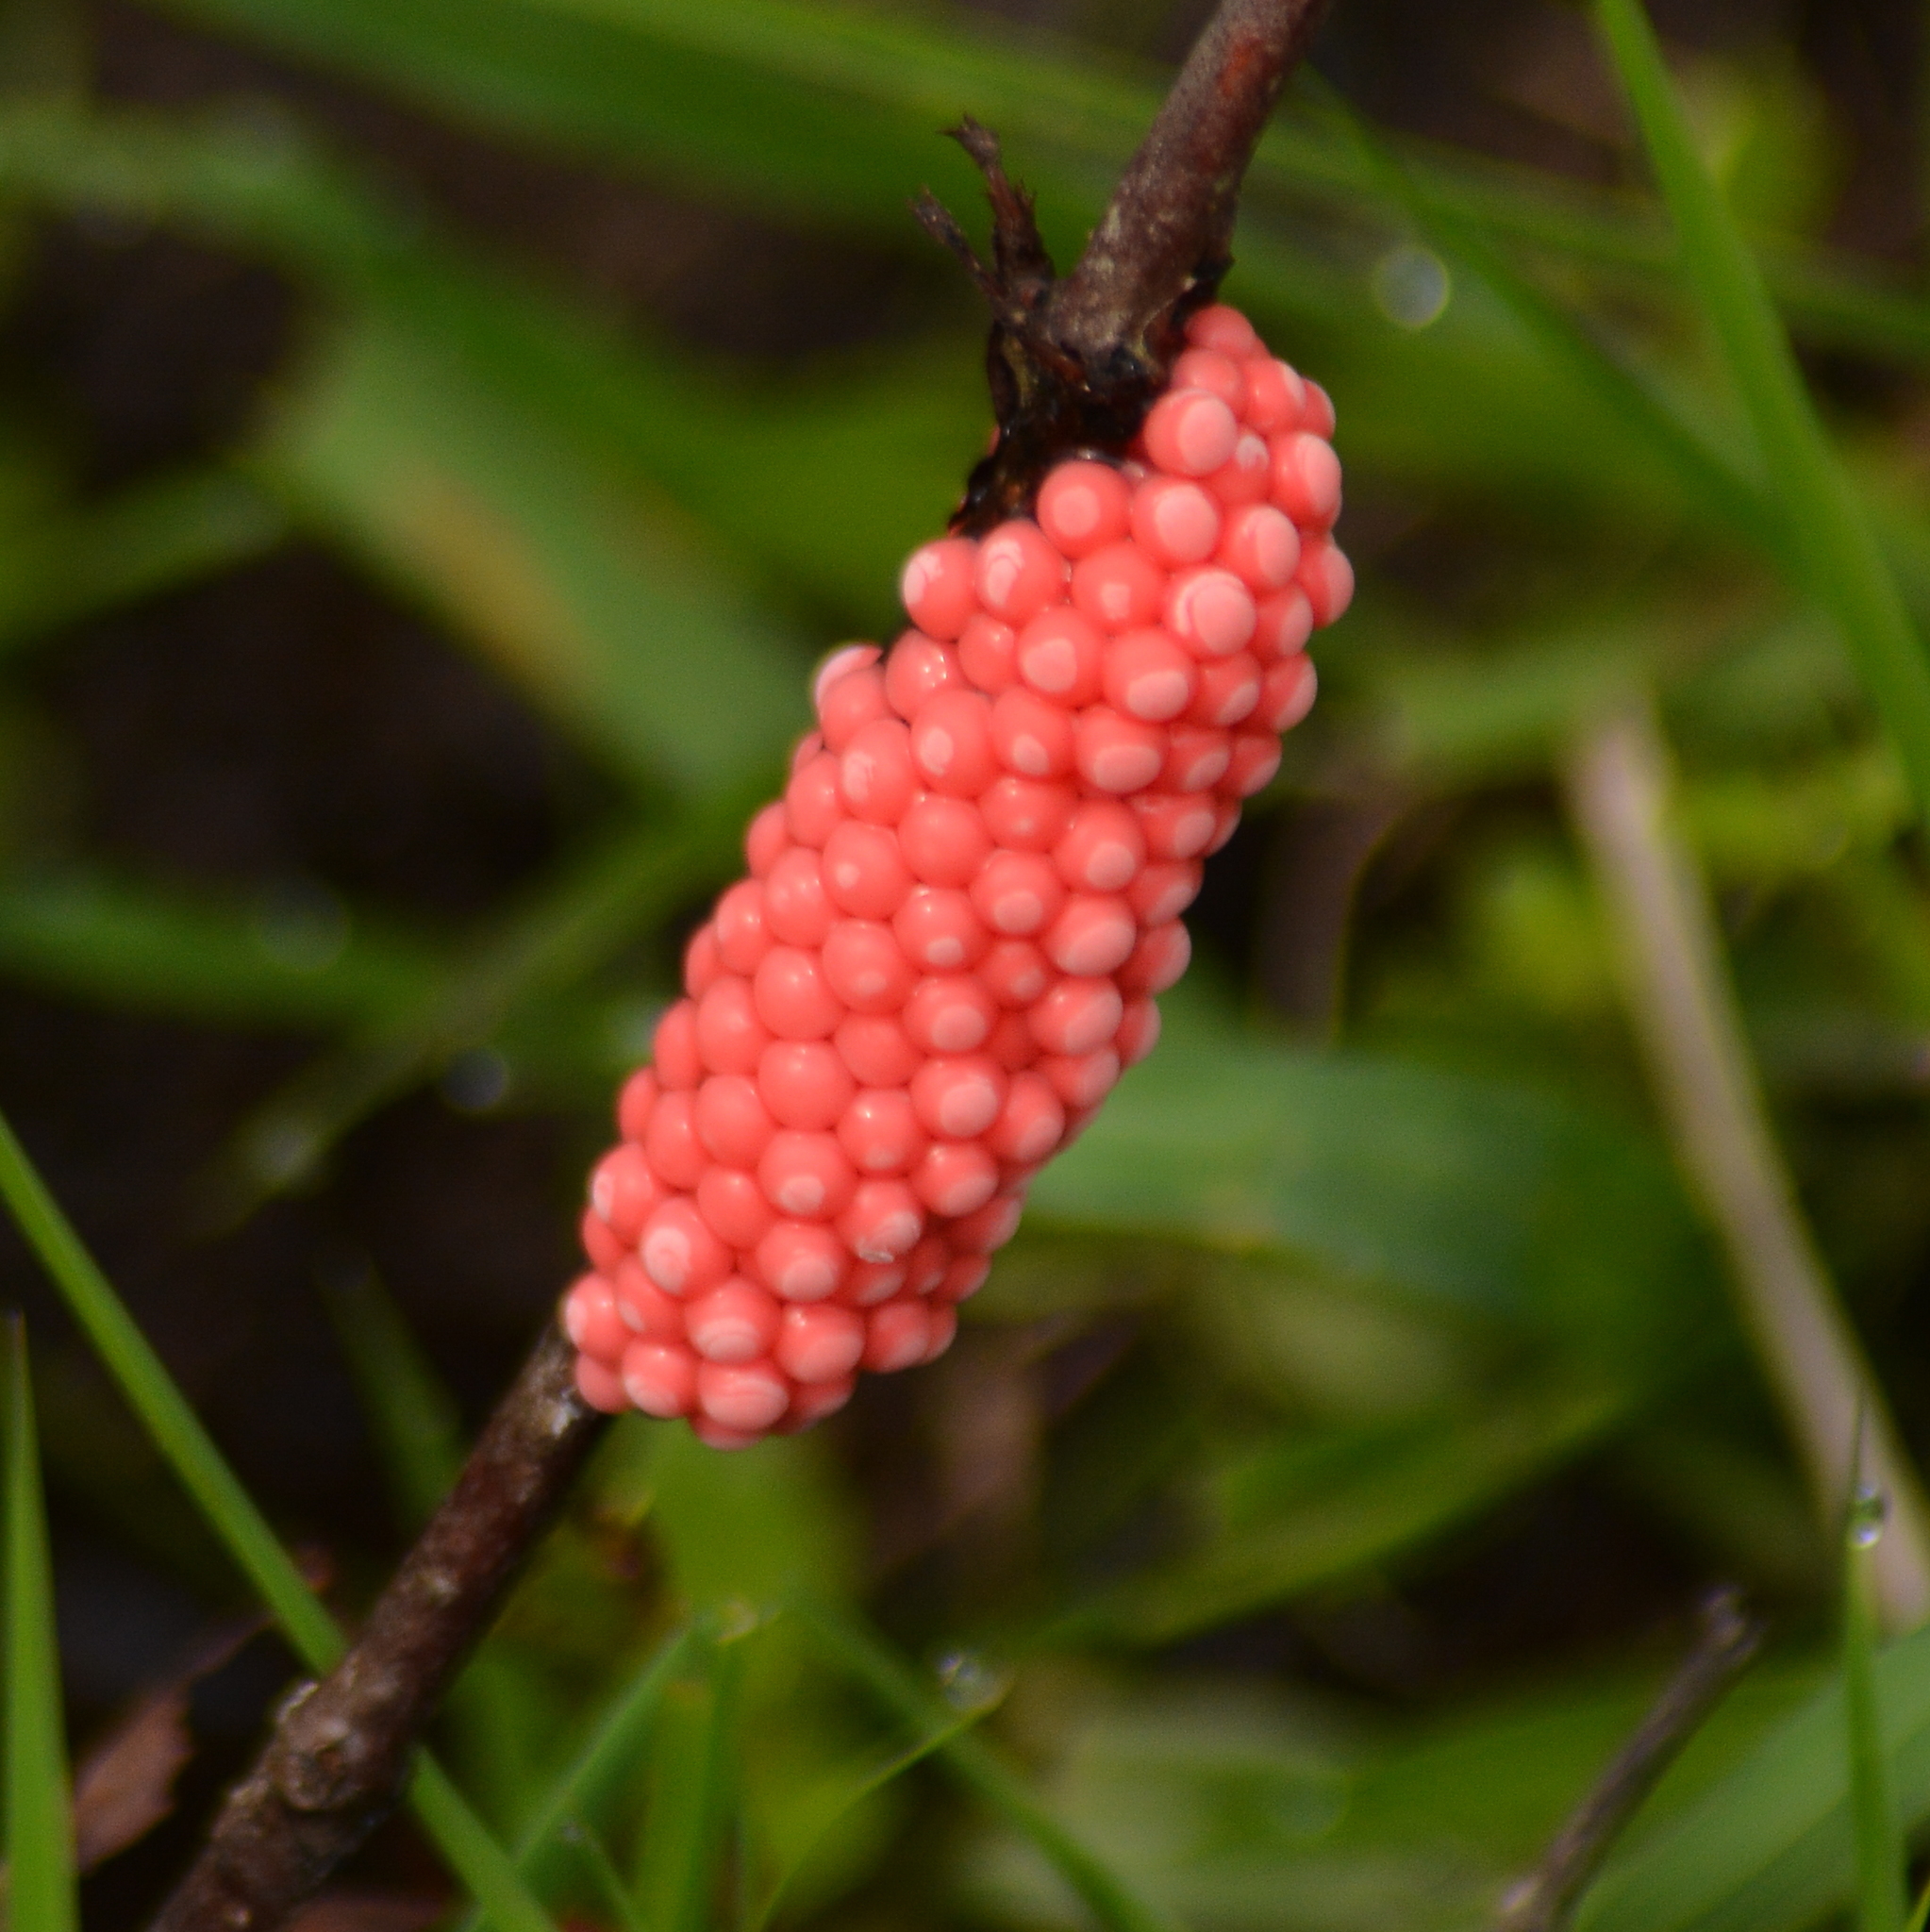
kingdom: Animalia
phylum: Mollusca
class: Gastropoda
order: Architaenioglossa
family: Ampullariidae
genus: Pomacea
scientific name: Pomacea canaliculata
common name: Channeled applesnail
